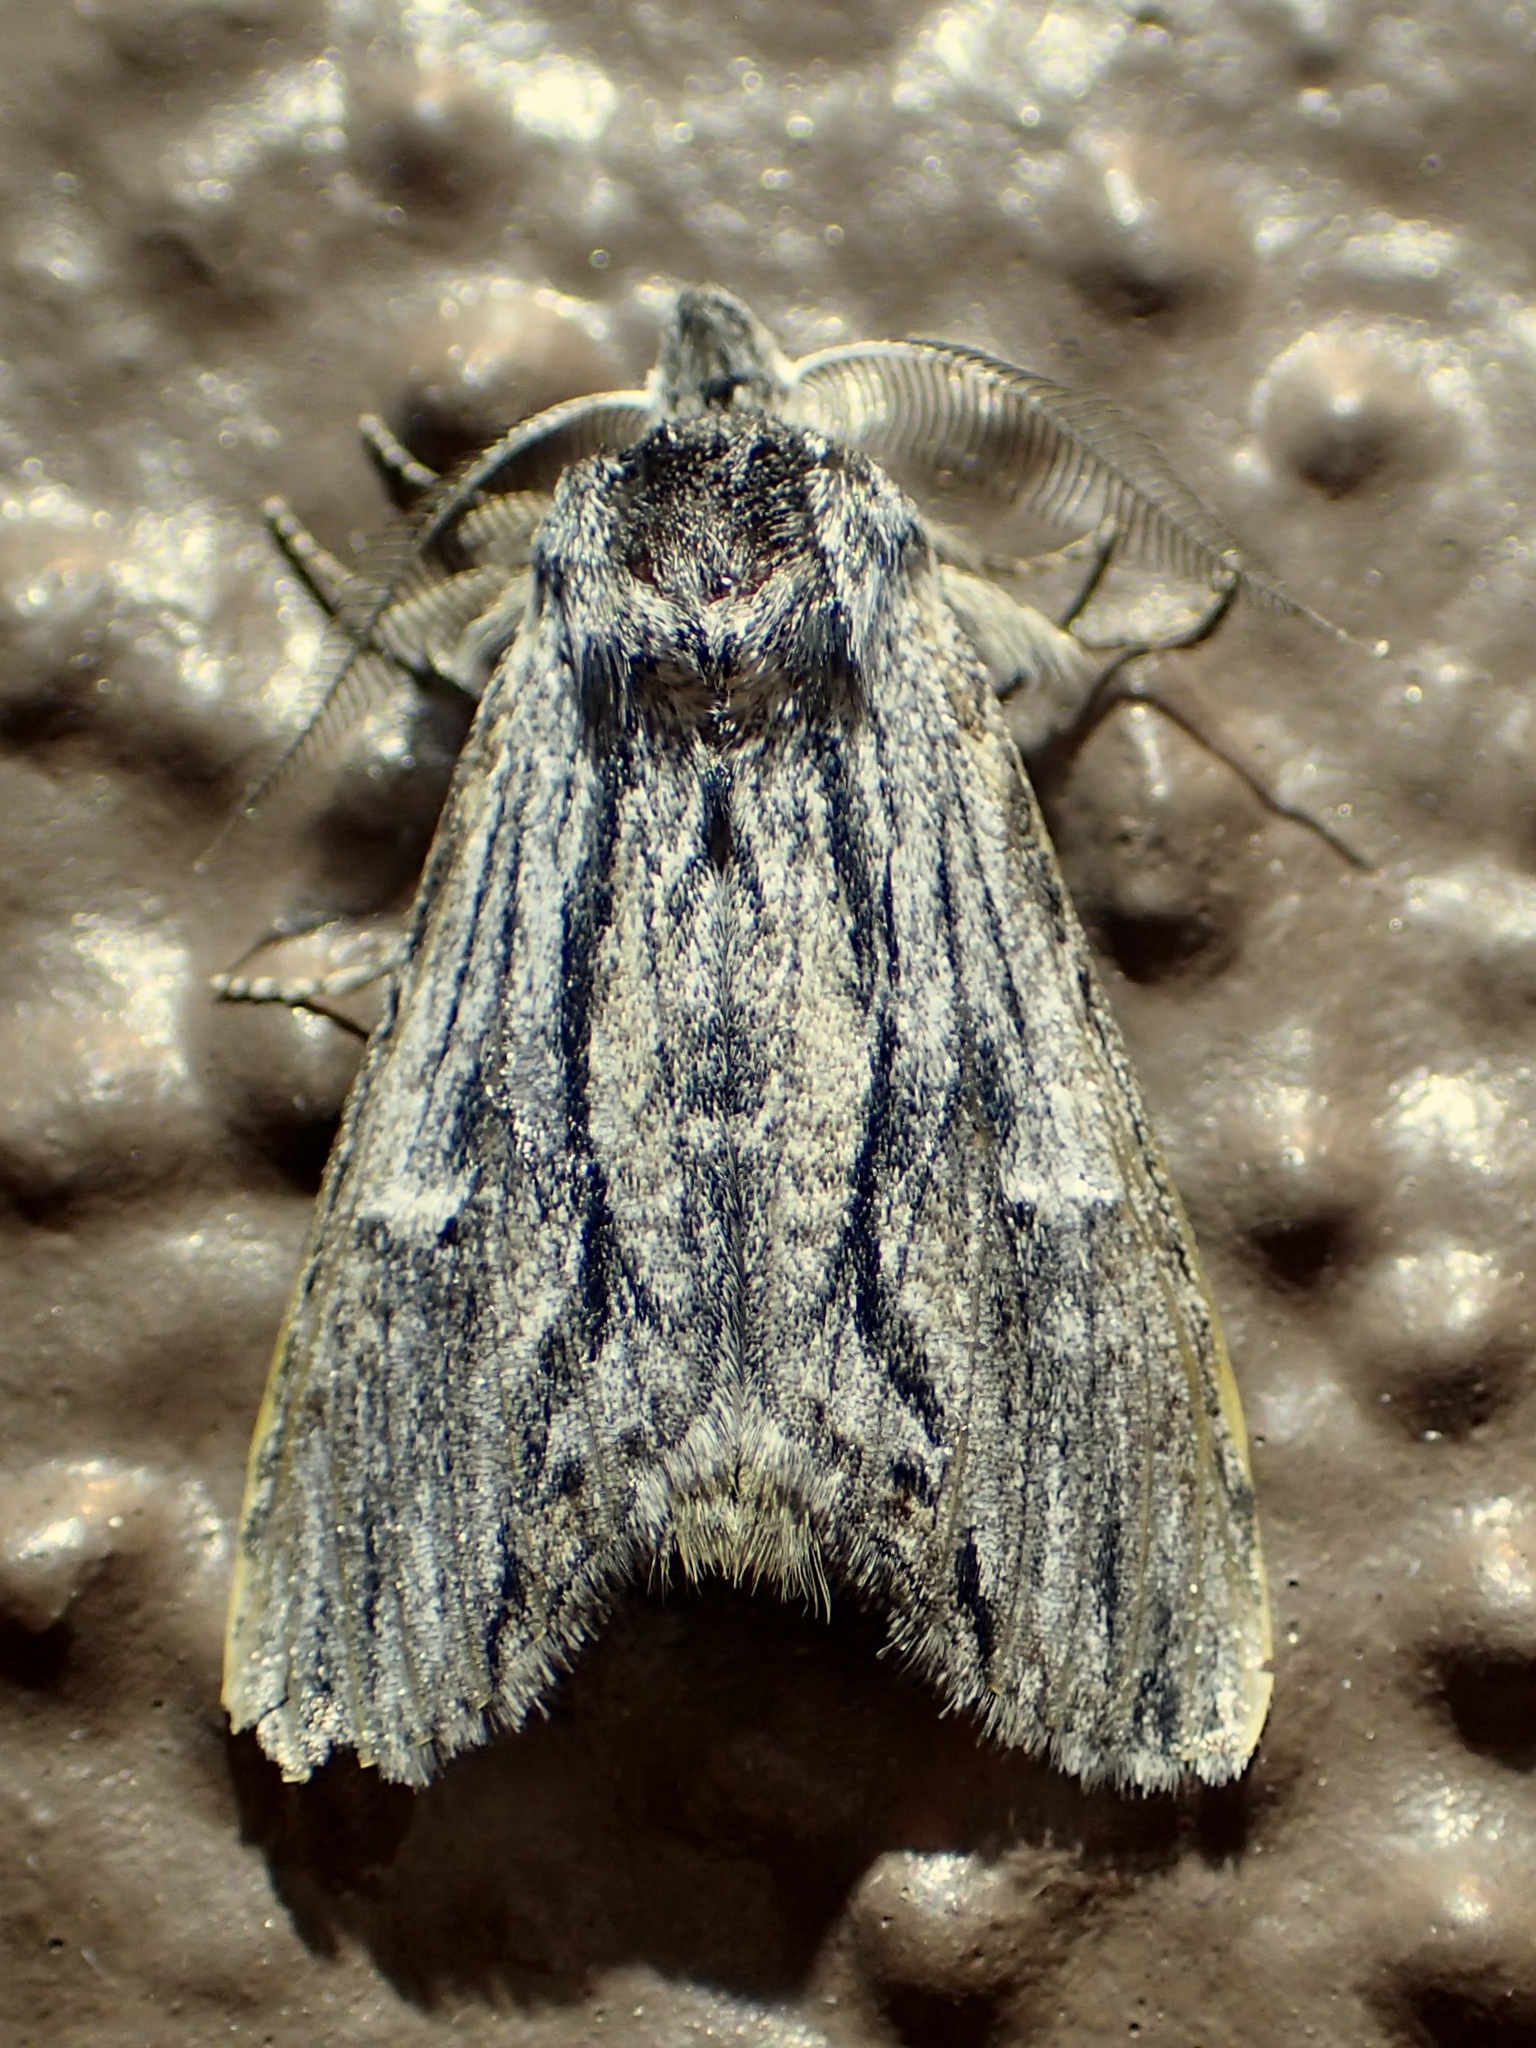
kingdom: Animalia
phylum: Arthropoda
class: Insecta
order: Lepidoptera
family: Notodontidae
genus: Notela
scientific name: Notela jaliscana
